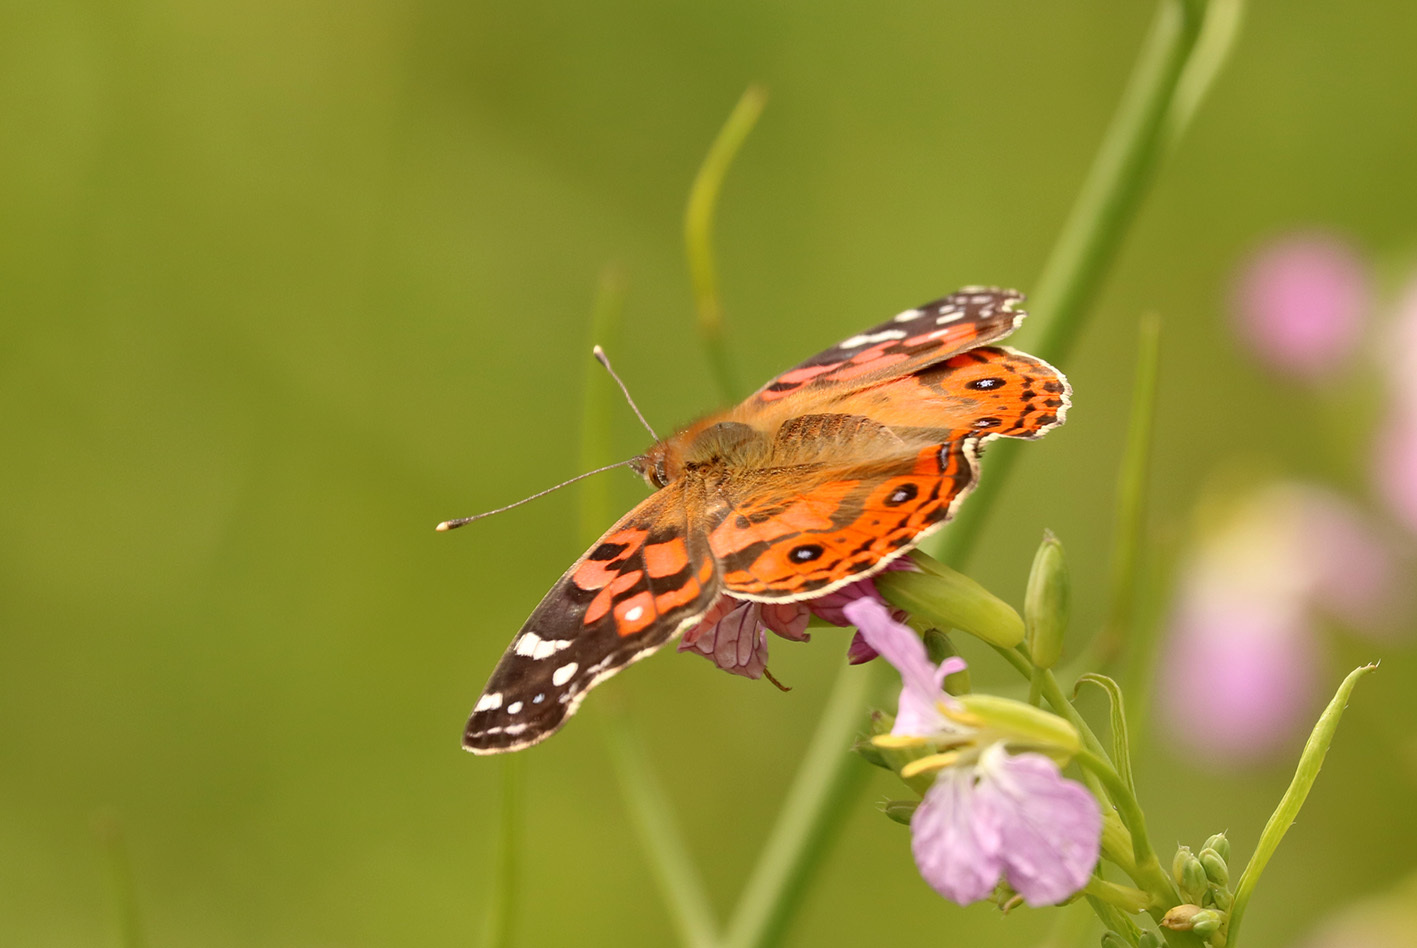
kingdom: Animalia
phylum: Arthropoda
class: Insecta
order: Lepidoptera
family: Nymphalidae
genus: Vanessa
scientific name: Vanessa braziliensis
